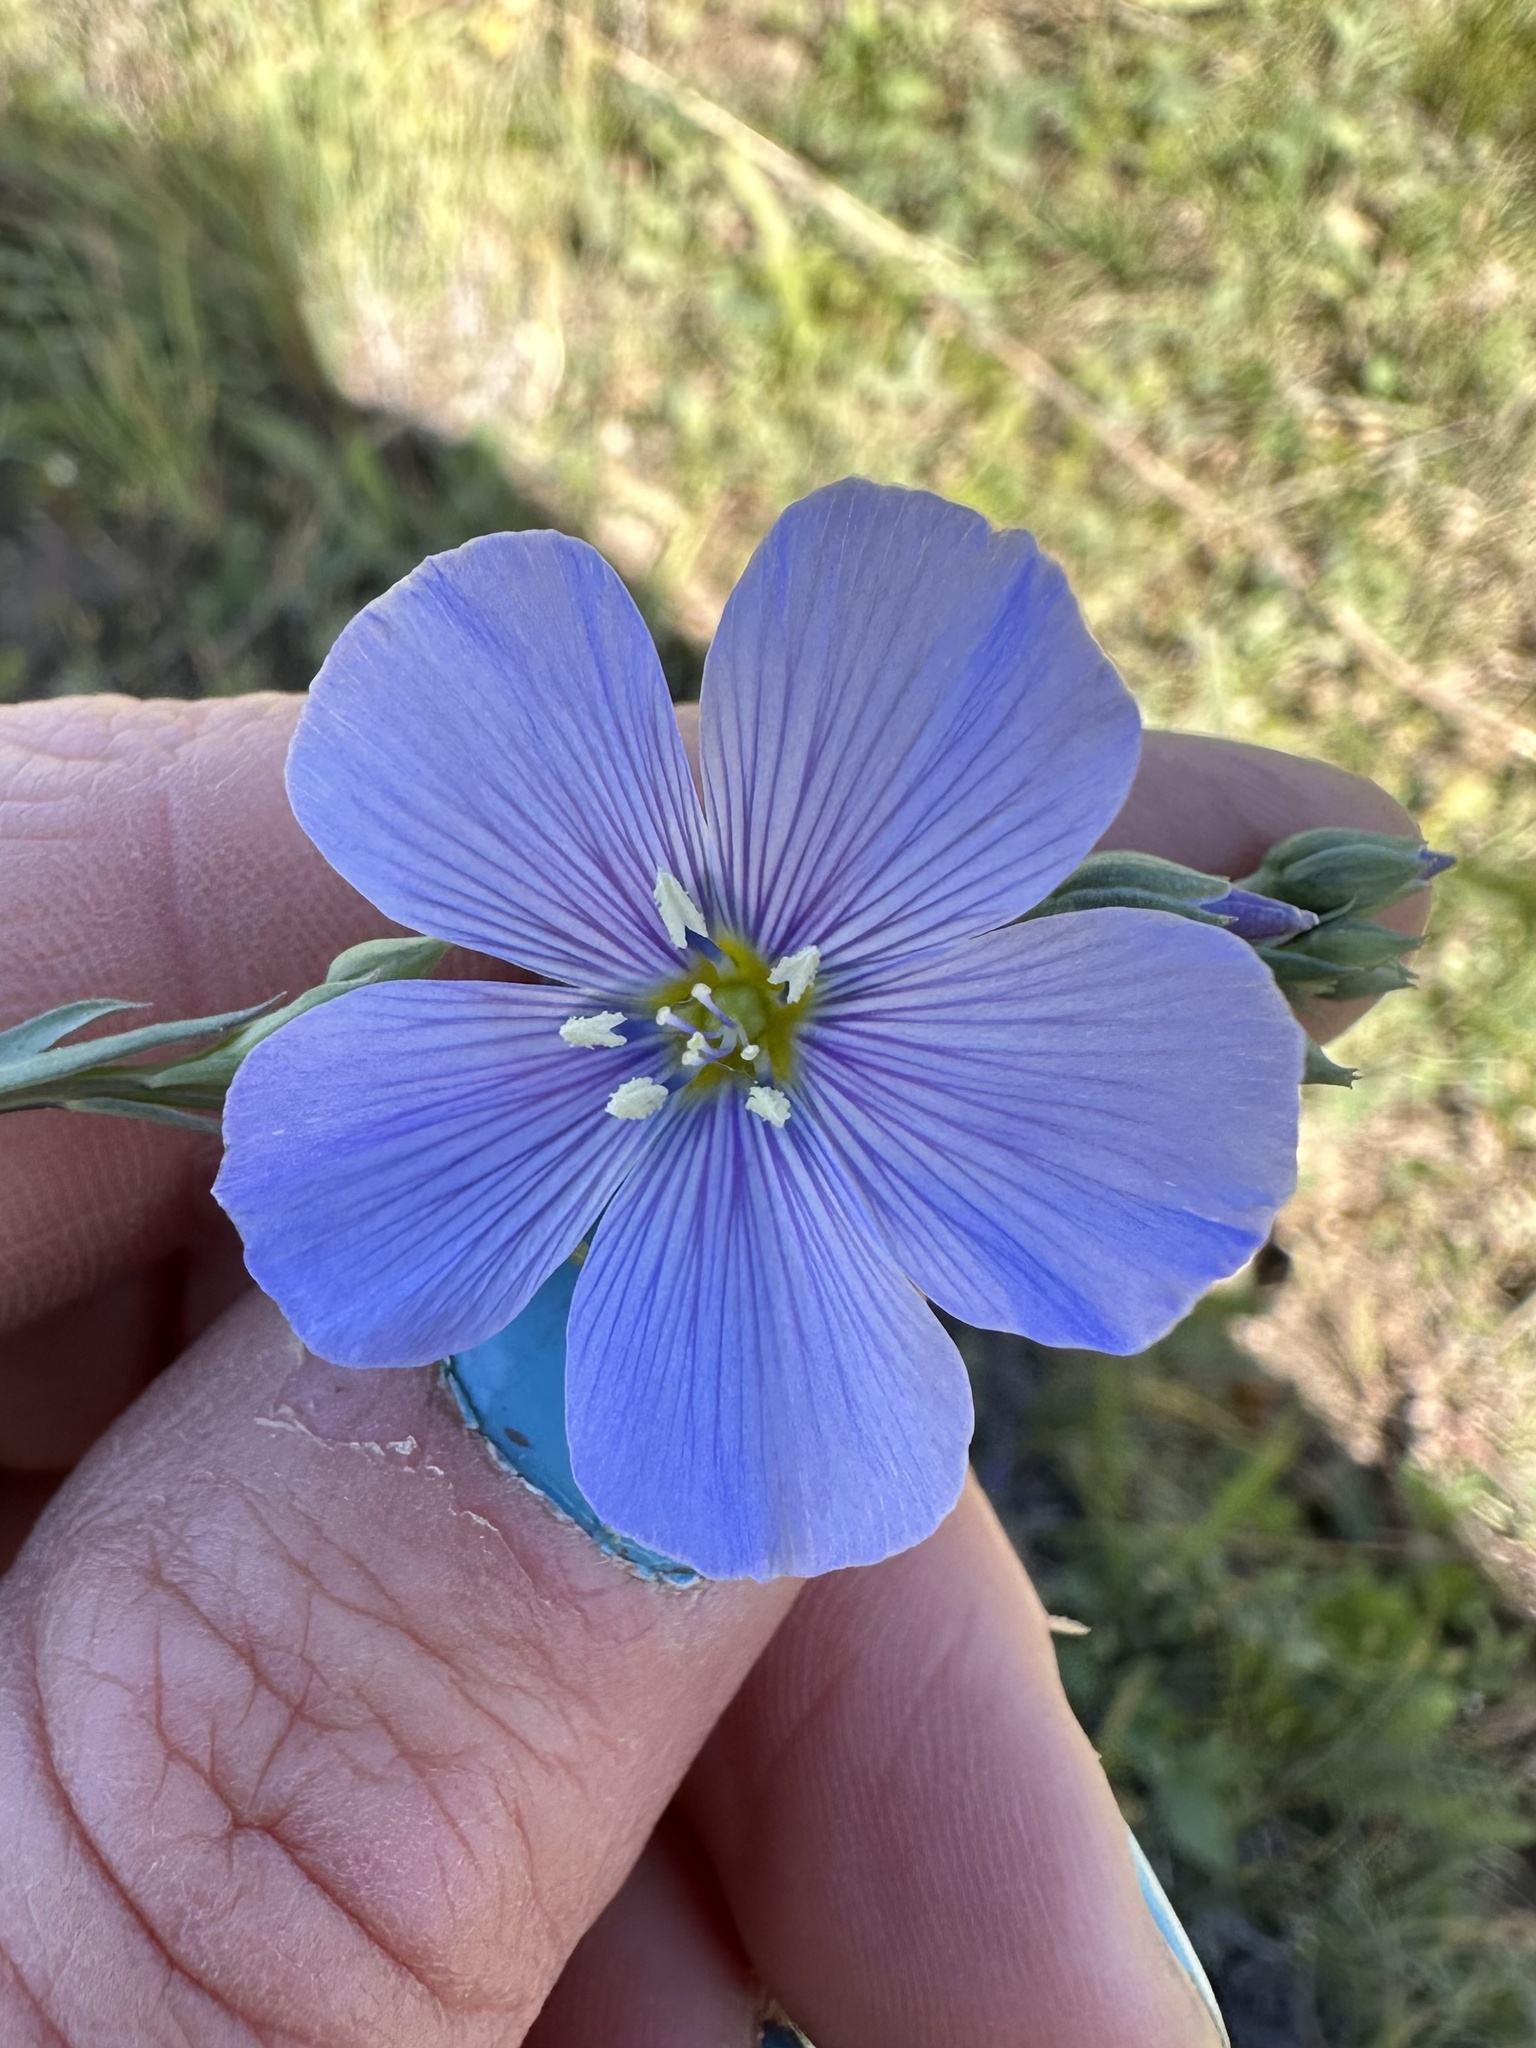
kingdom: Plantae
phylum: Tracheophyta
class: Magnoliopsida
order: Malpighiales
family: Linaceae
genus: Linum
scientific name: Linum lewisii
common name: Prairie flax
